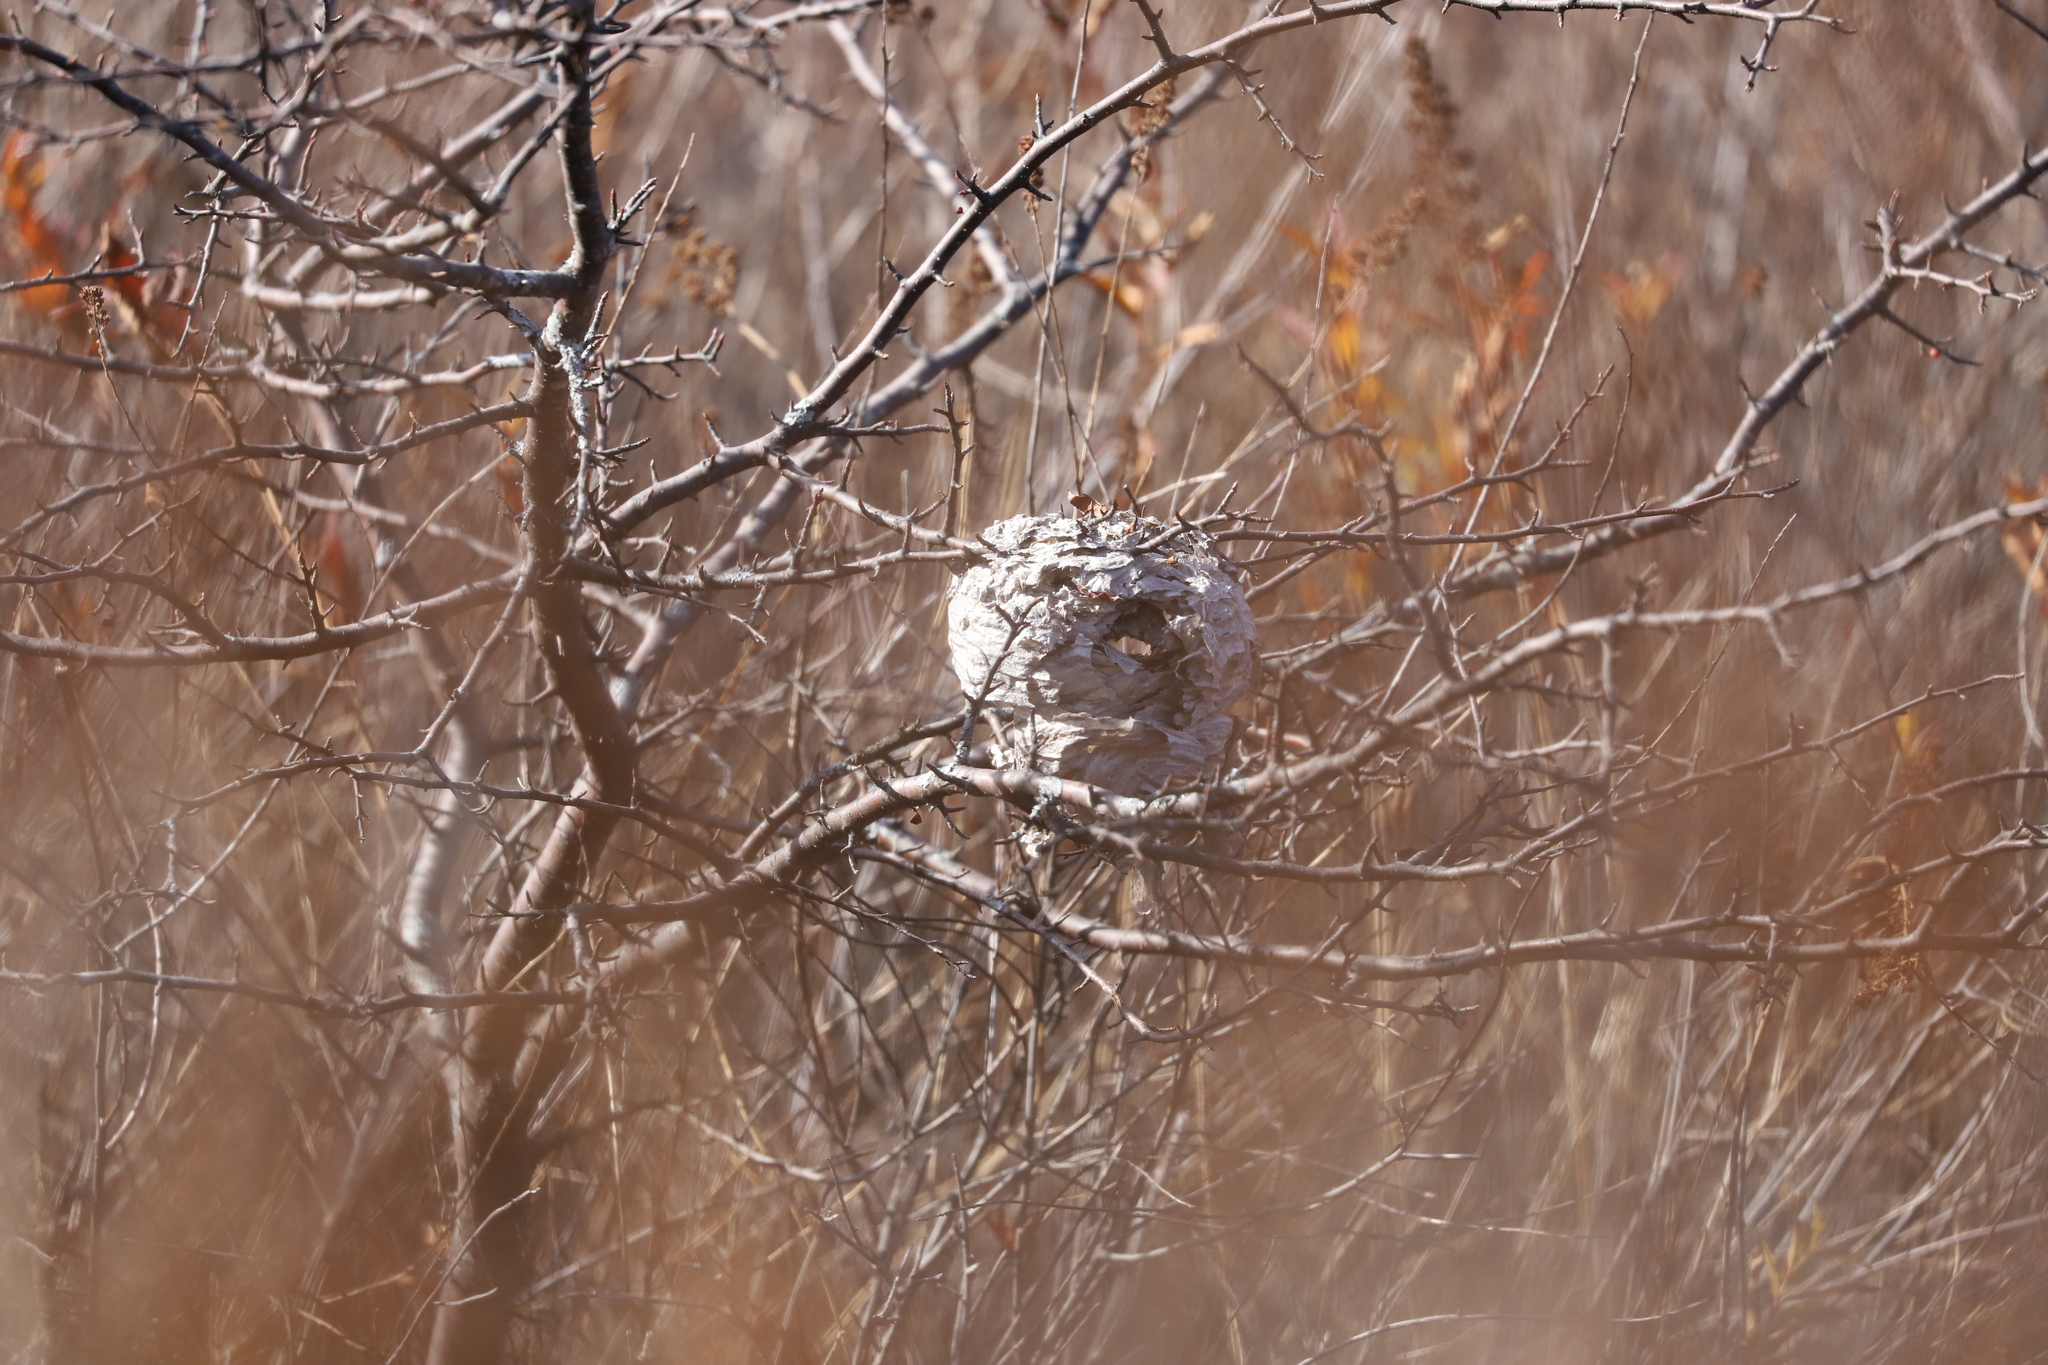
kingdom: Animalia
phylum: Arthropoda
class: Insecta
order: Hymenoptera
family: Vespidae
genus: Dolichovespula
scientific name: Dolichovespula
